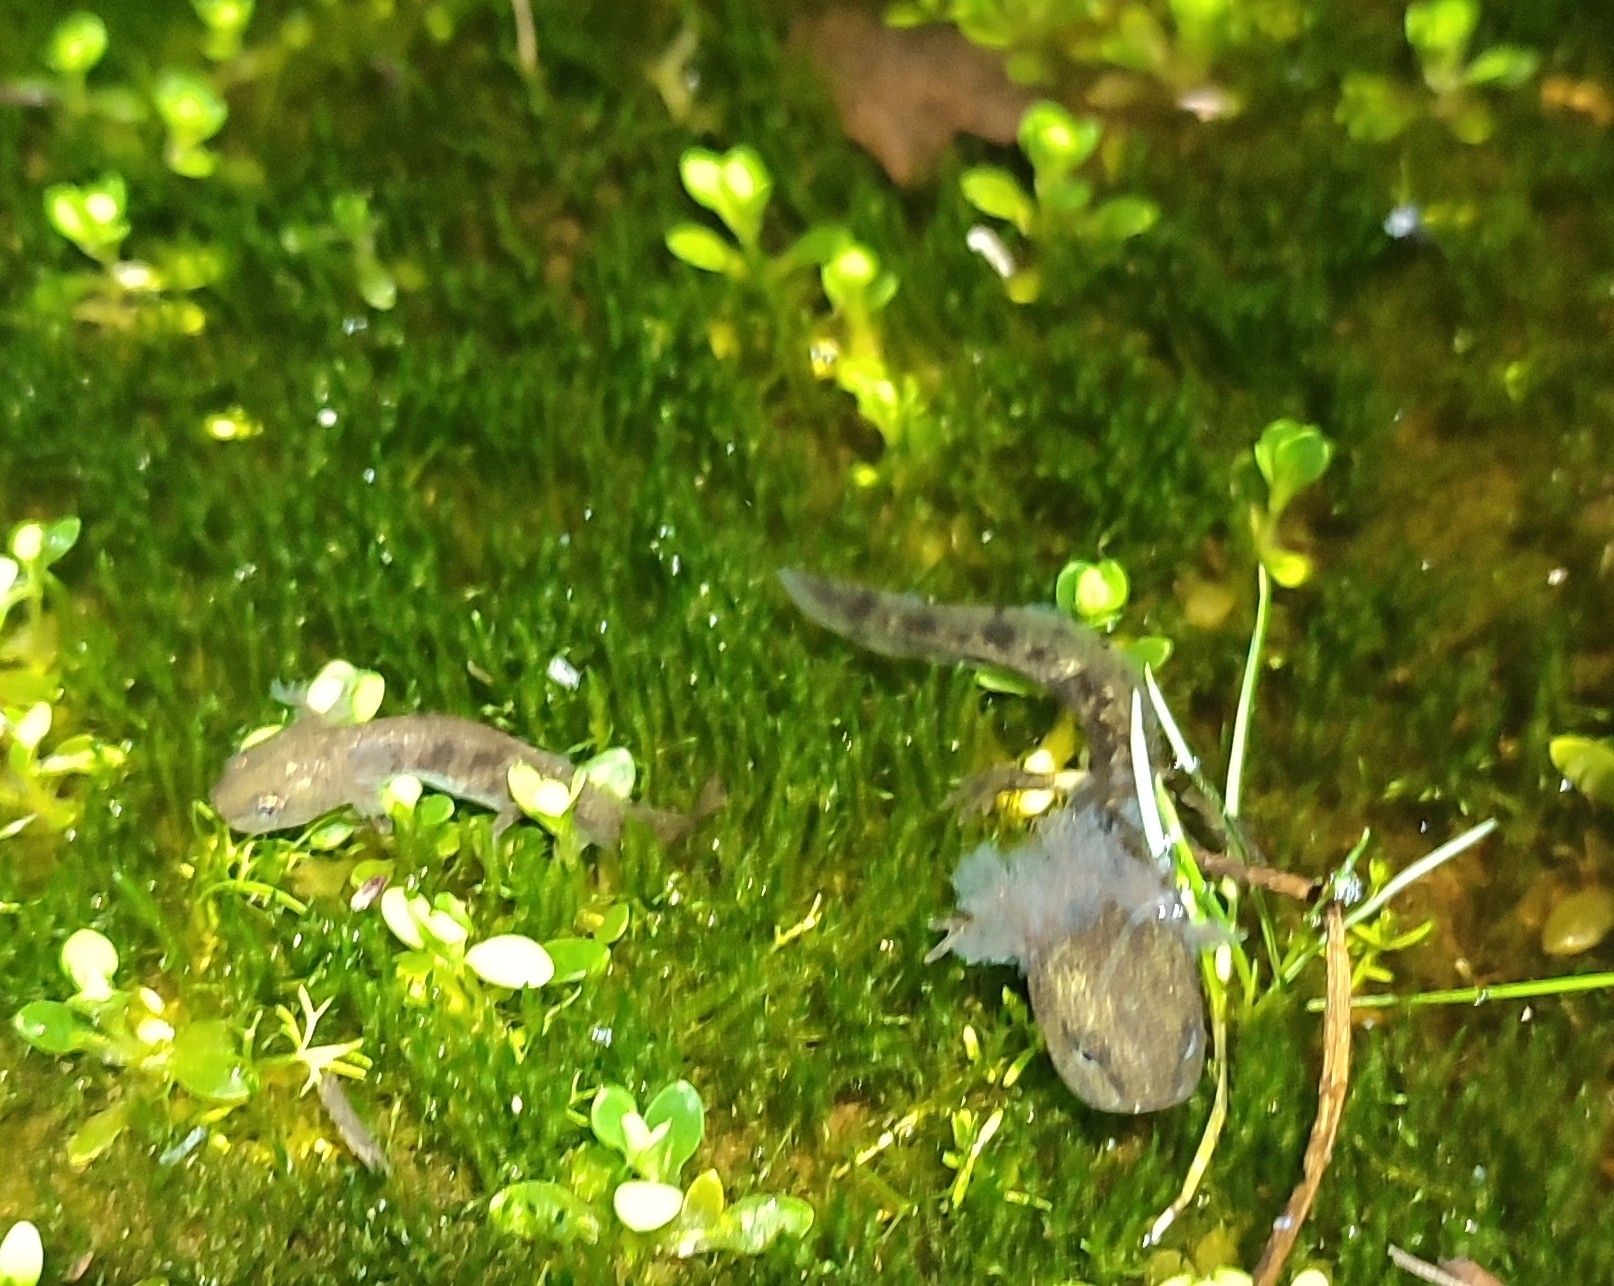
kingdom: Animalia
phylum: Chordata
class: Amphibia
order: Caudata
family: Salamandridae
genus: Salamandra
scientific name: Salamandra salamandra
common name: Fire salamander
